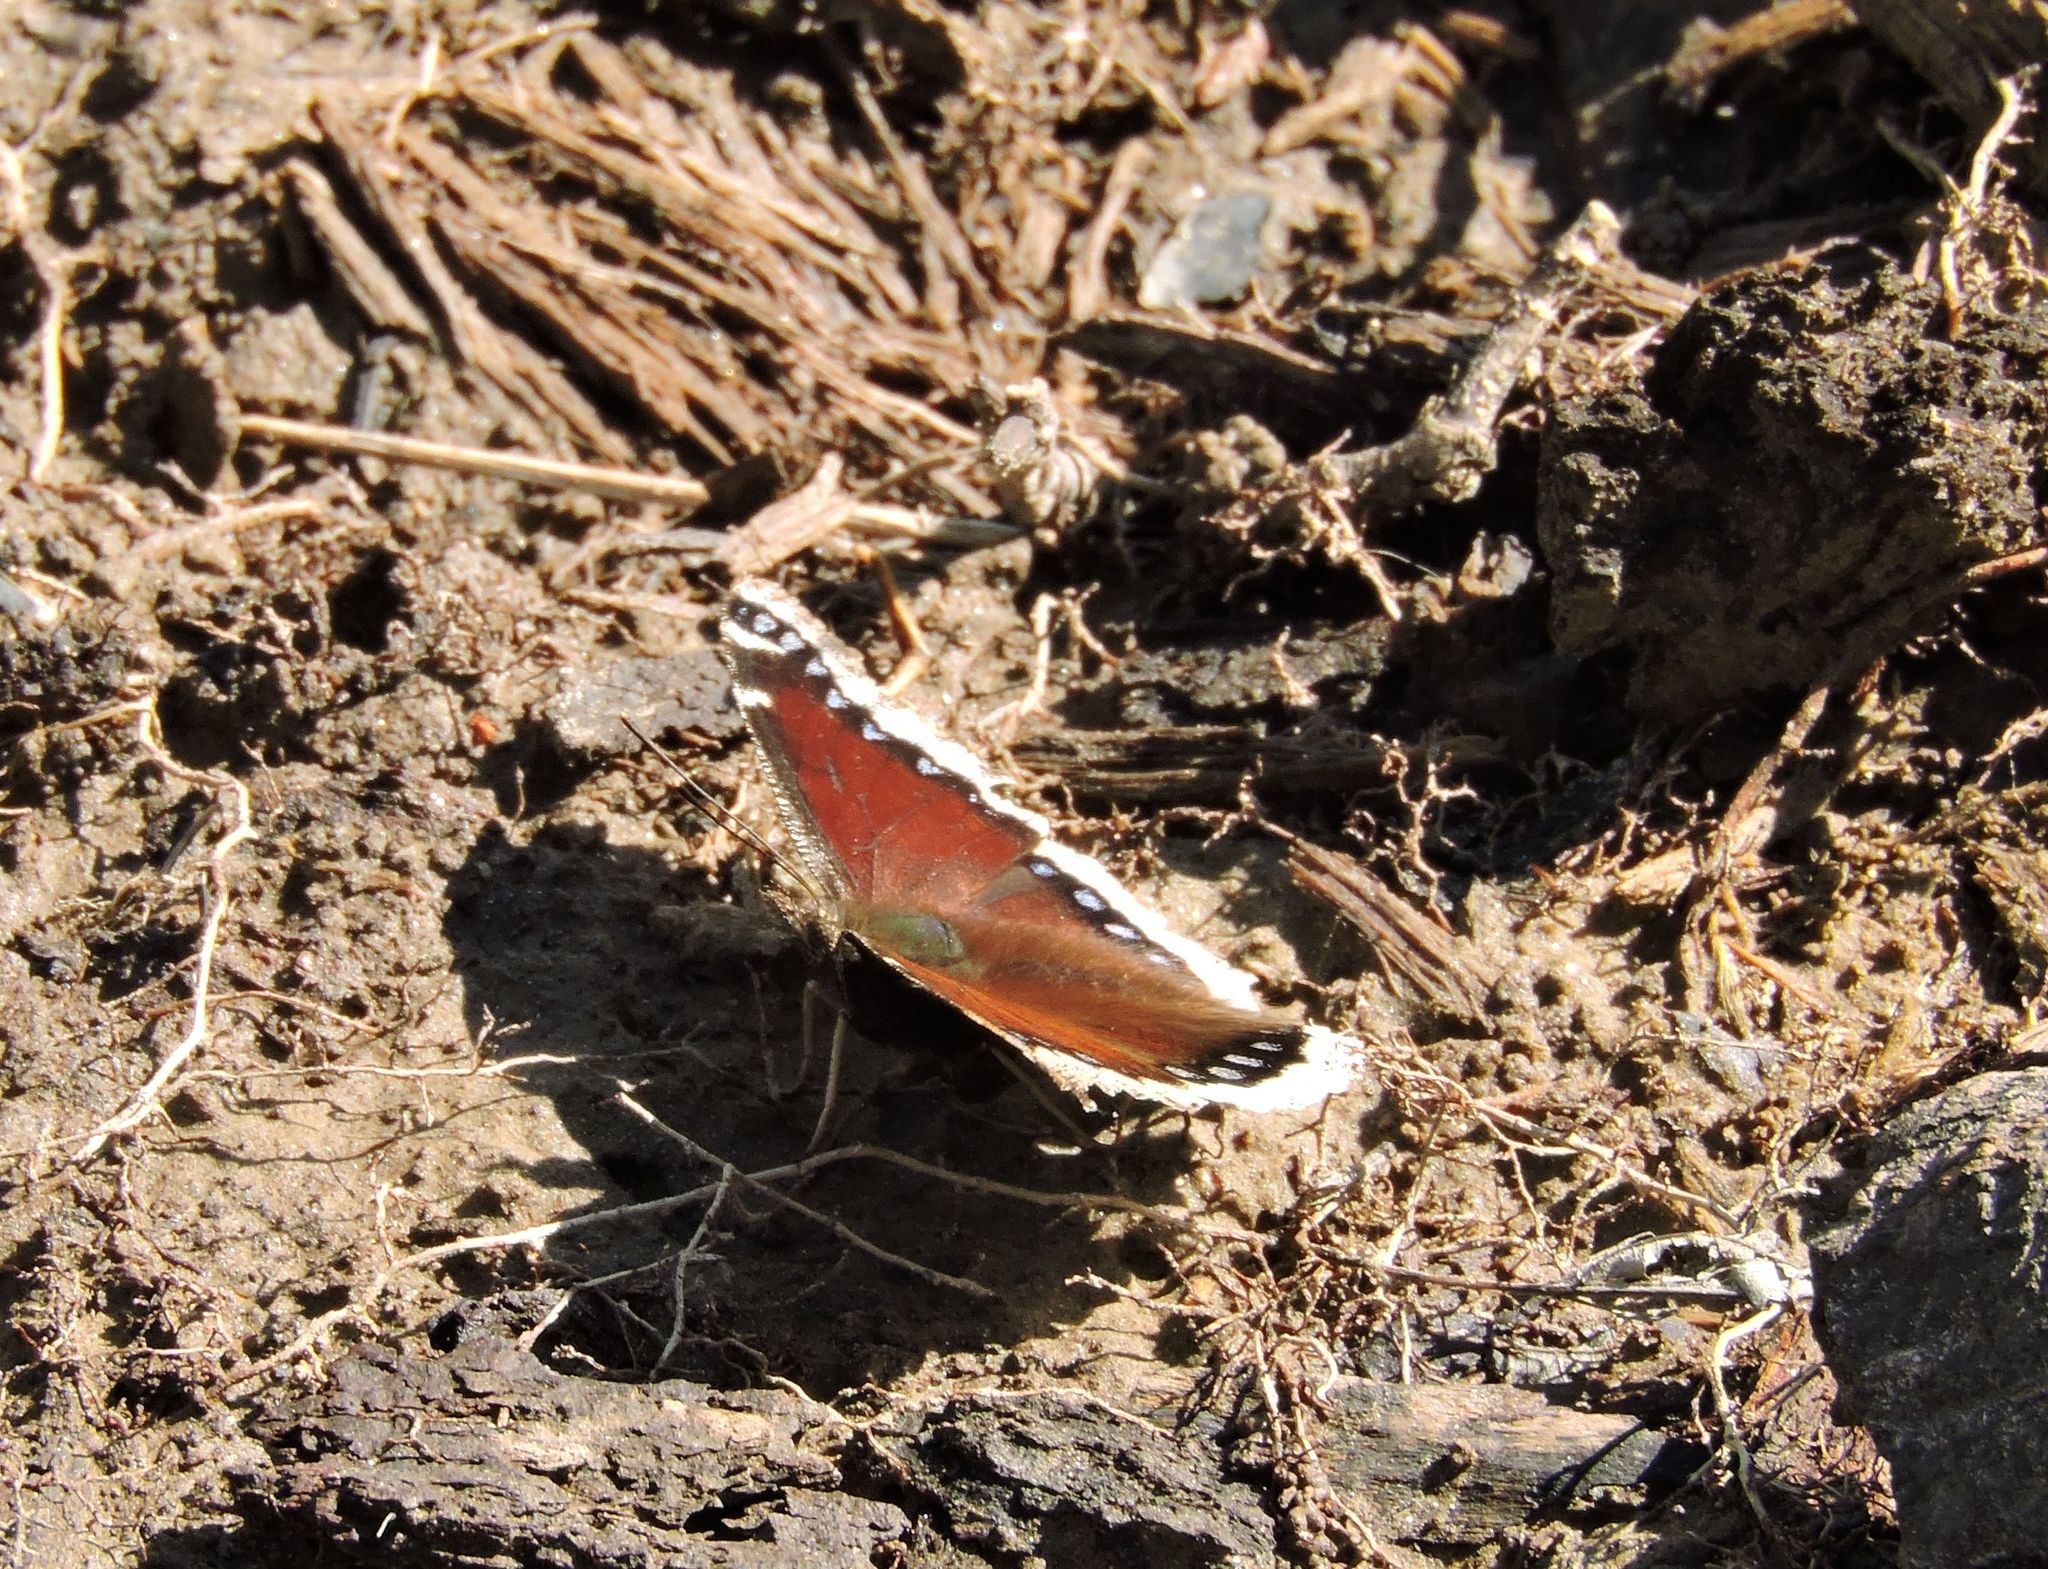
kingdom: Animalia
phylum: Arthropoda
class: Insecta
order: Lepidoptera
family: Nymphalidae
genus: Nymphalis
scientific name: Nymphalis antiopa
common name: Camberwell beauty
